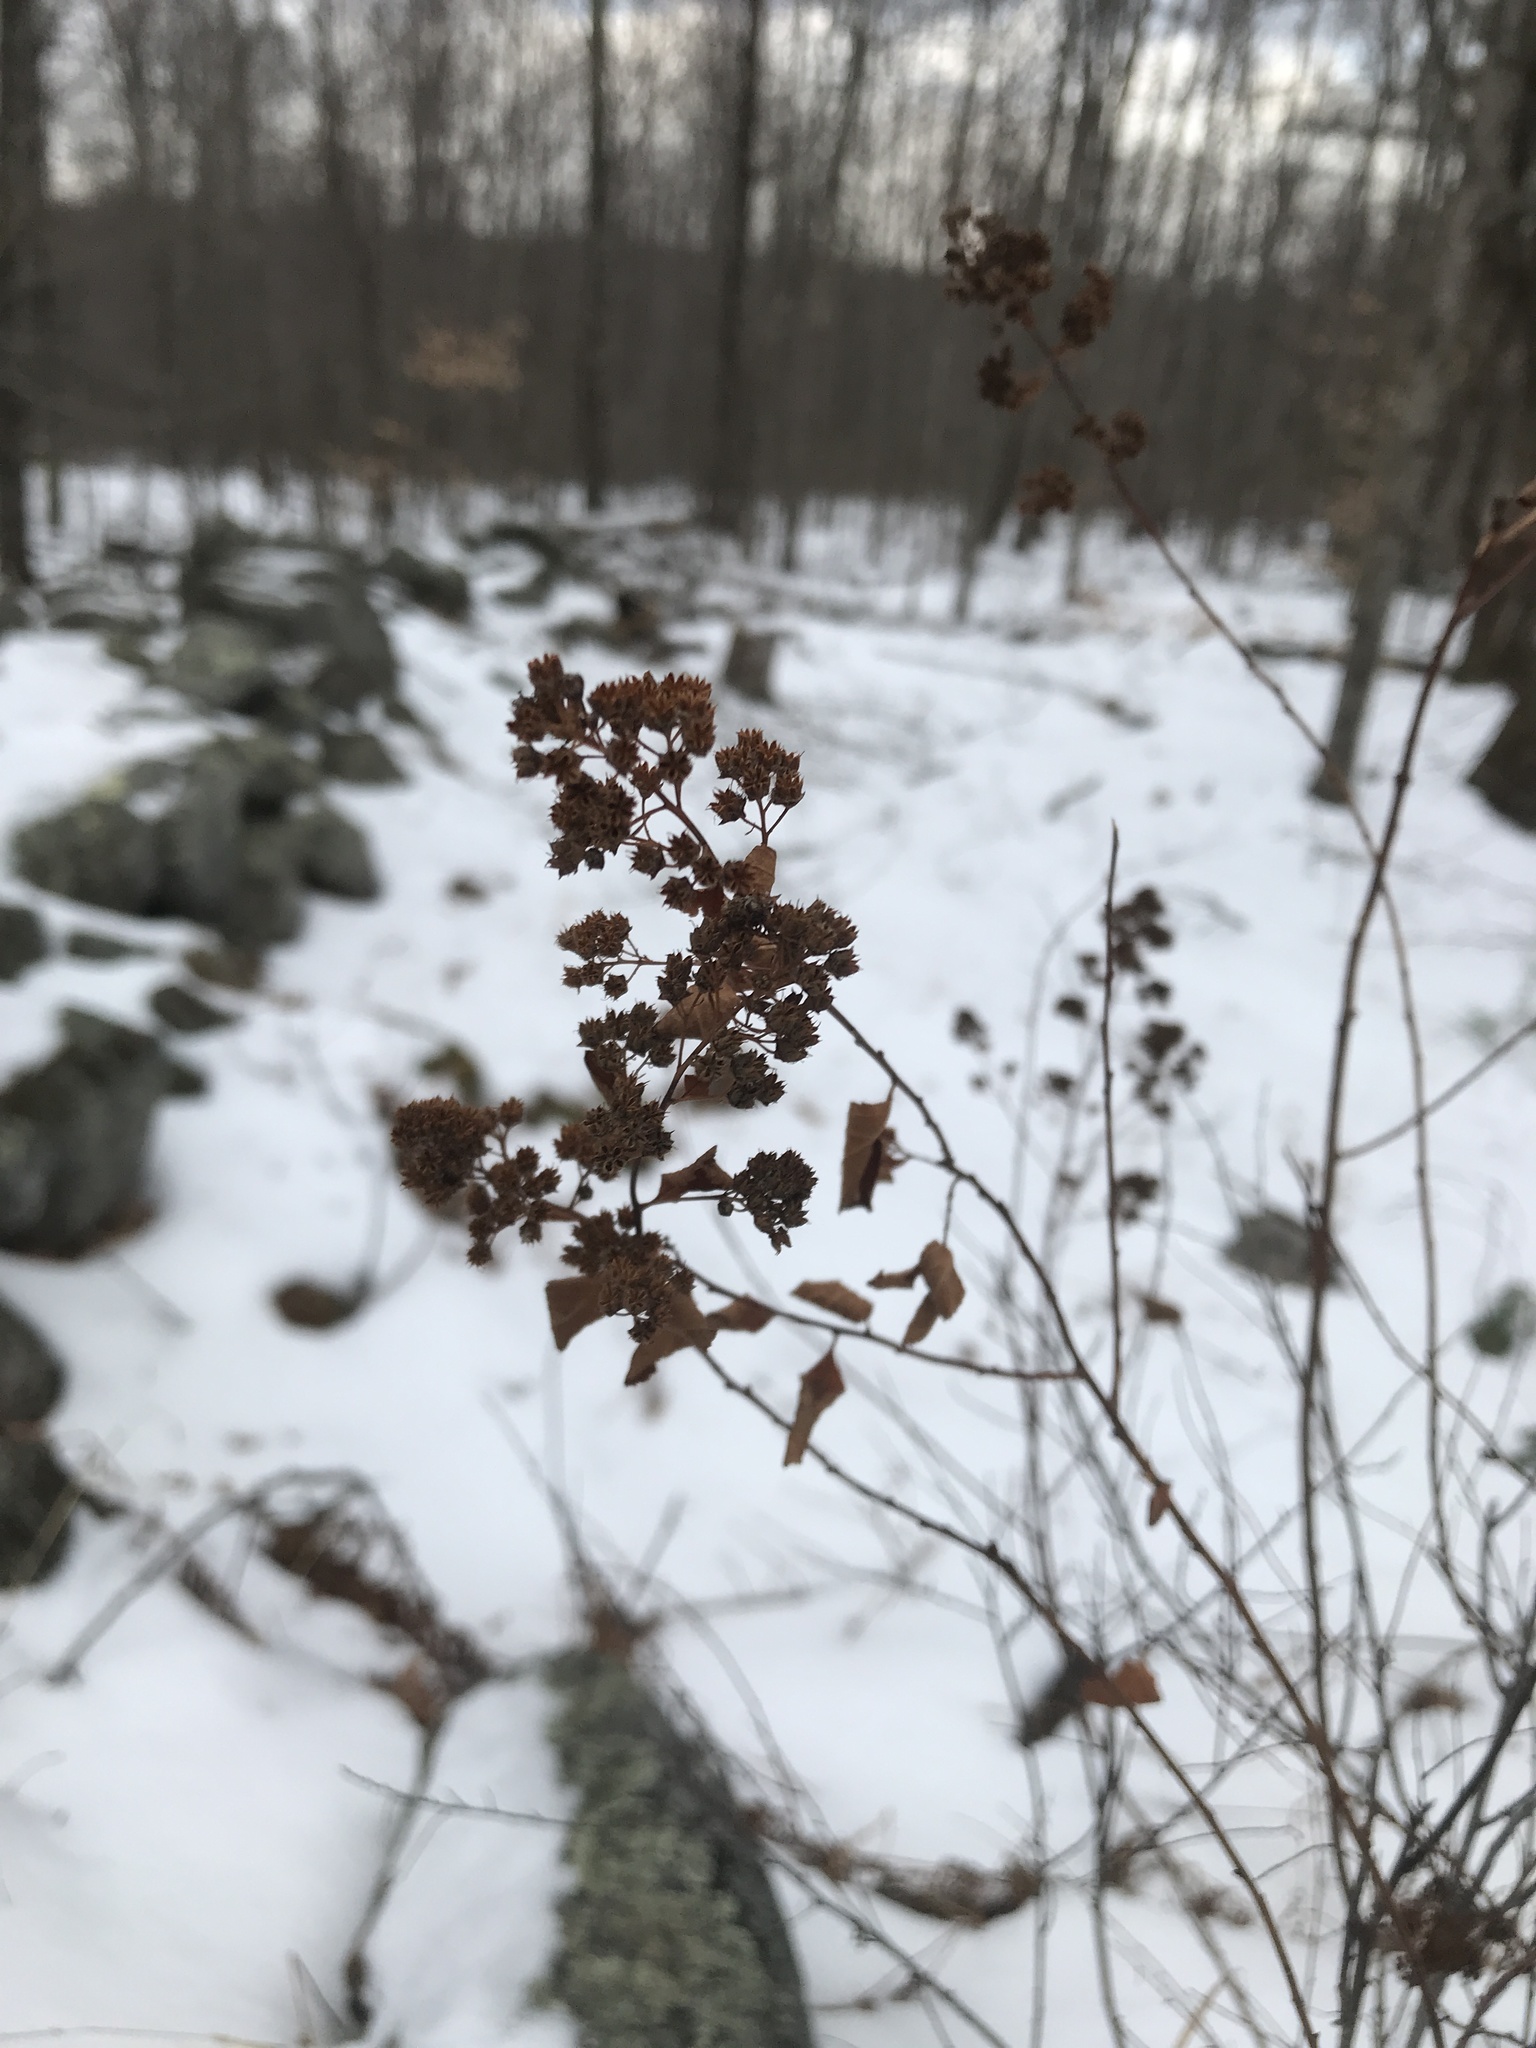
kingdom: Plantae
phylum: Tracheophyta
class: Magnoliopsida
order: Rosales
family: Rosaceae
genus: Spiraea
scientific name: Spiraea alba
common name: Pale bridewort
